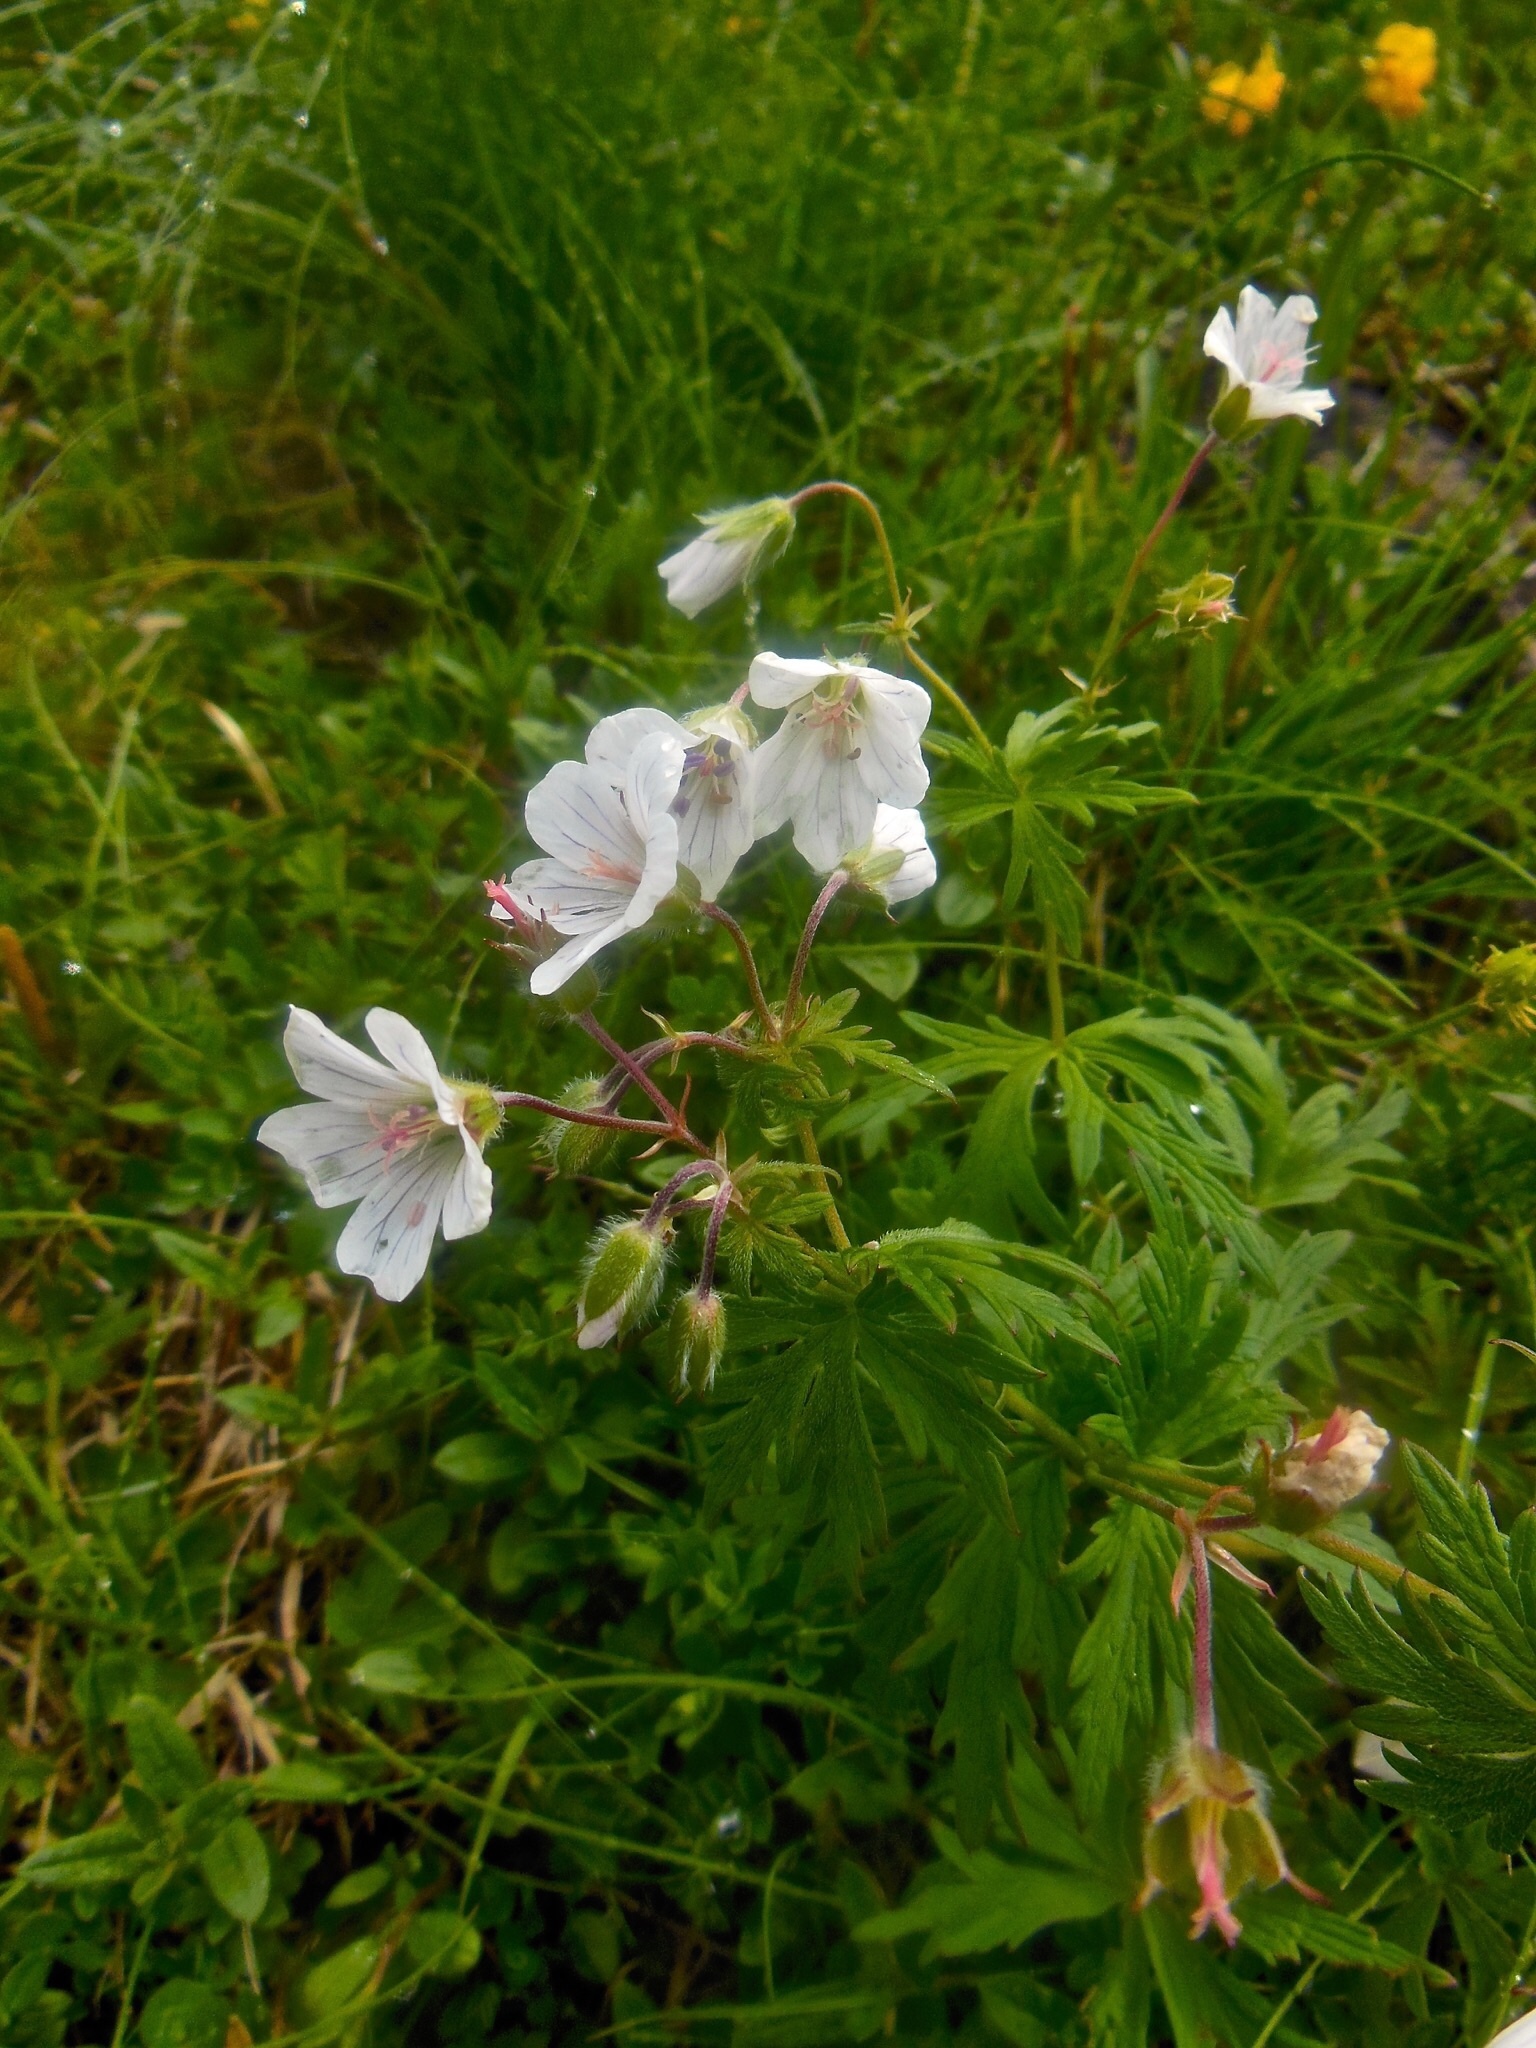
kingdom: Plantae
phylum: Tracheophyta
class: Magnoliopsida
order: Geraniales
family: Geraniaceae
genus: Geranium
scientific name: Geranium rivulare
